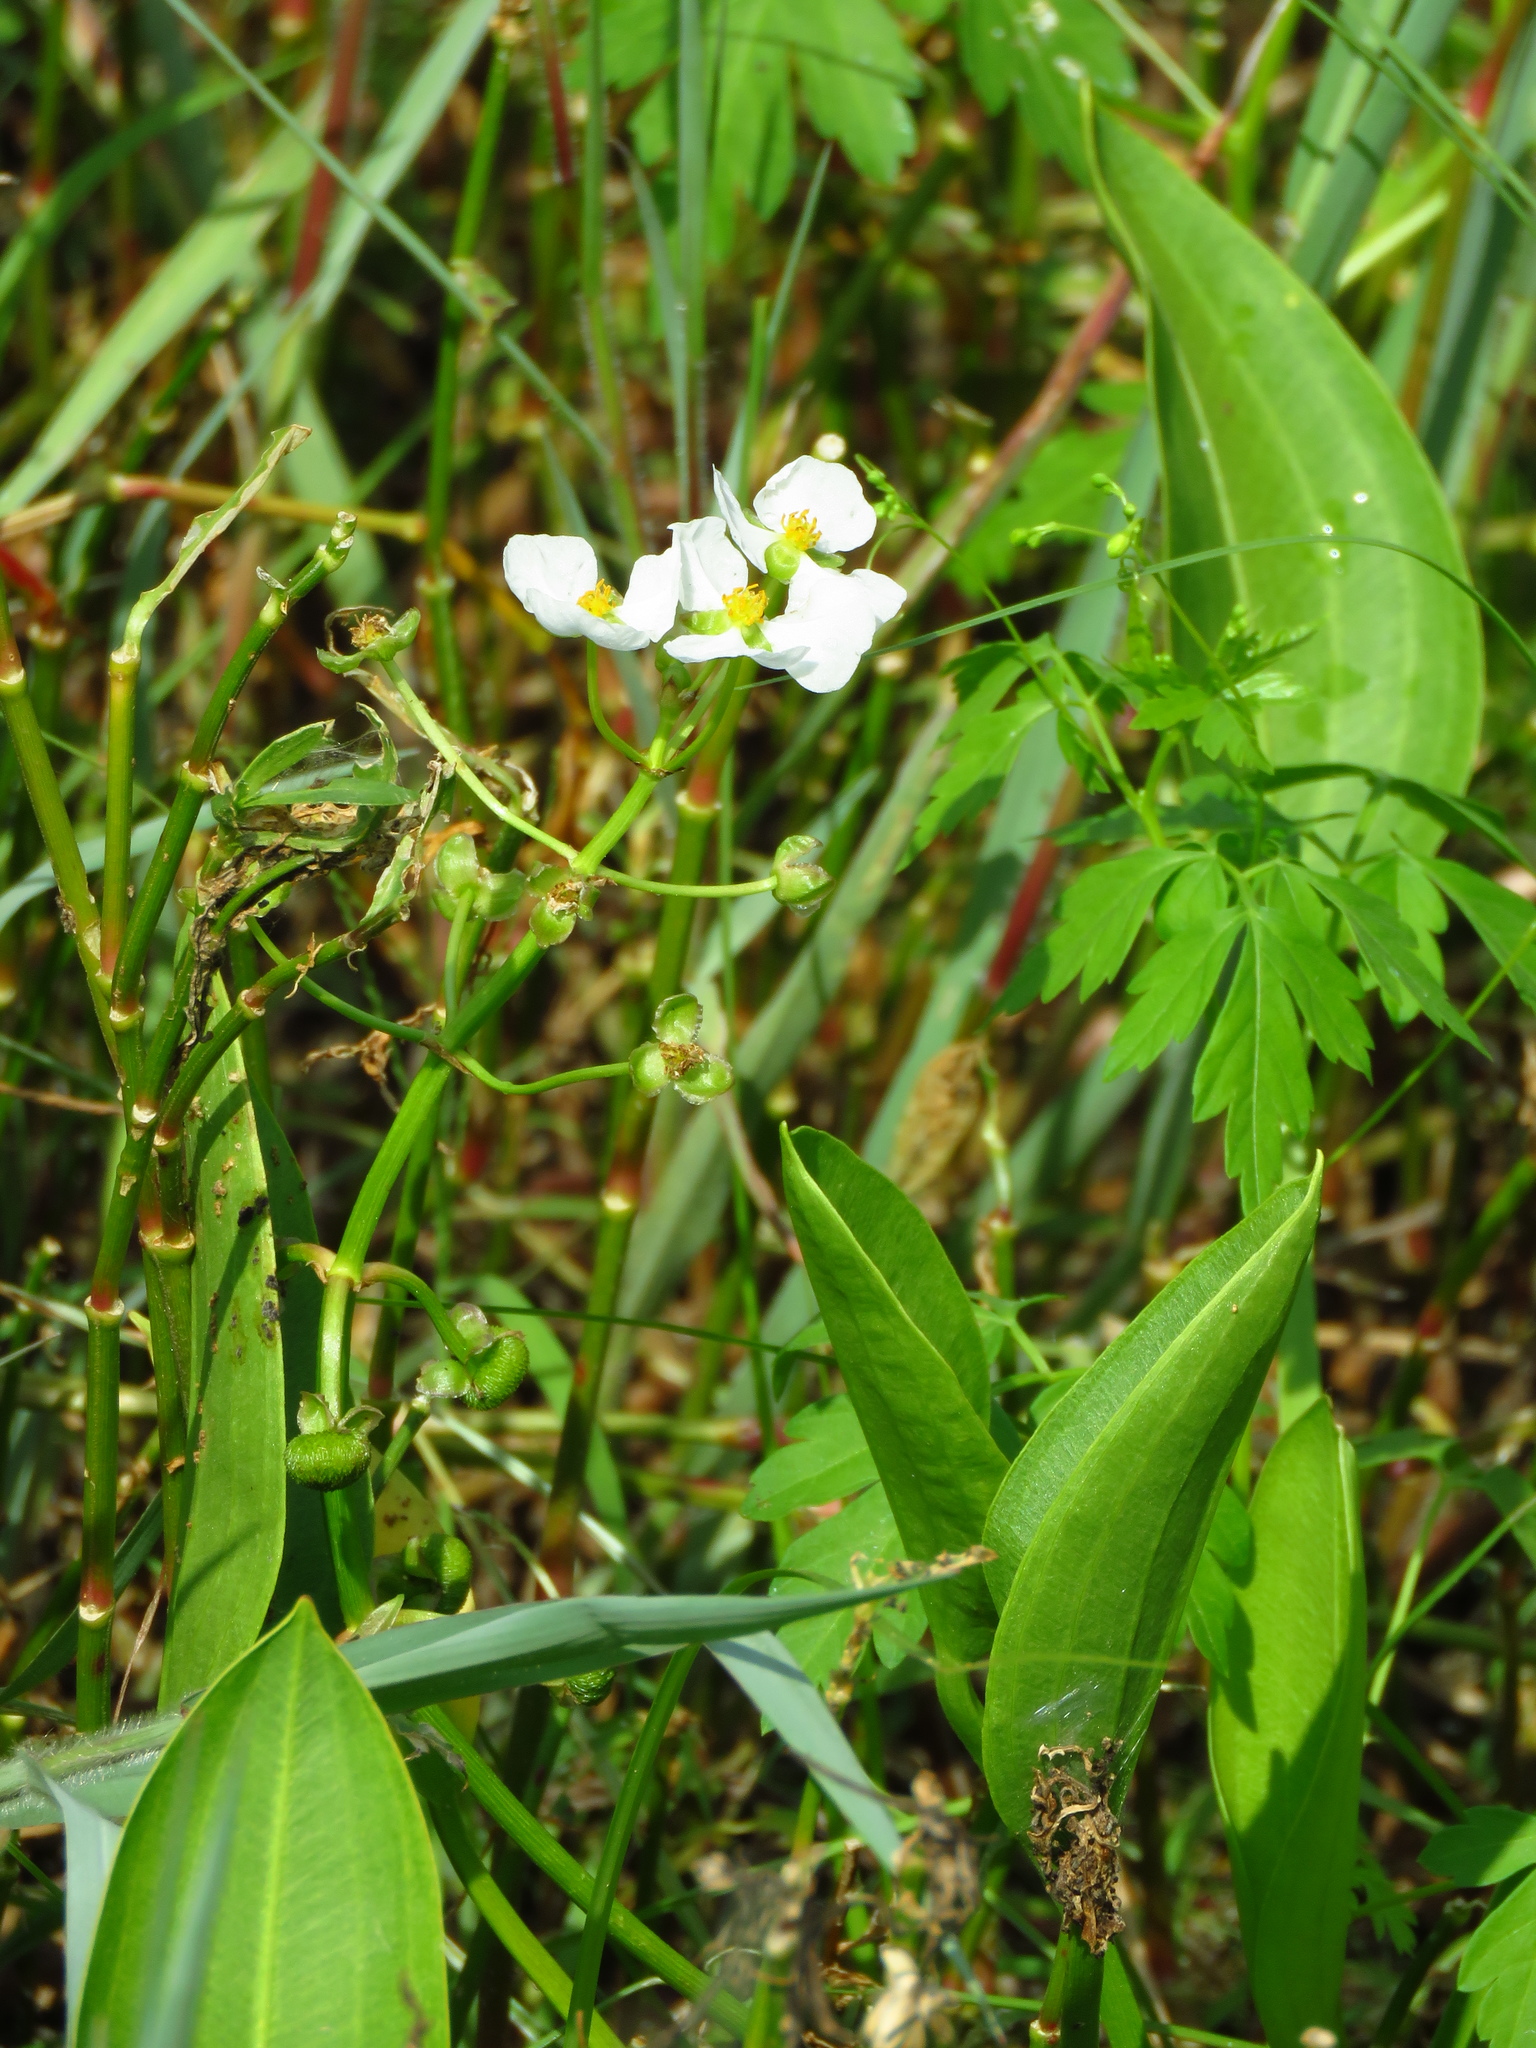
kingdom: Plantae
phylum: Tracheophyta
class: Liliopsida
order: Alismatales
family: Alismataceae
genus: Sagittaria
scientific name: Sagittaria platyphylla
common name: Broad-leaf arrowhead
